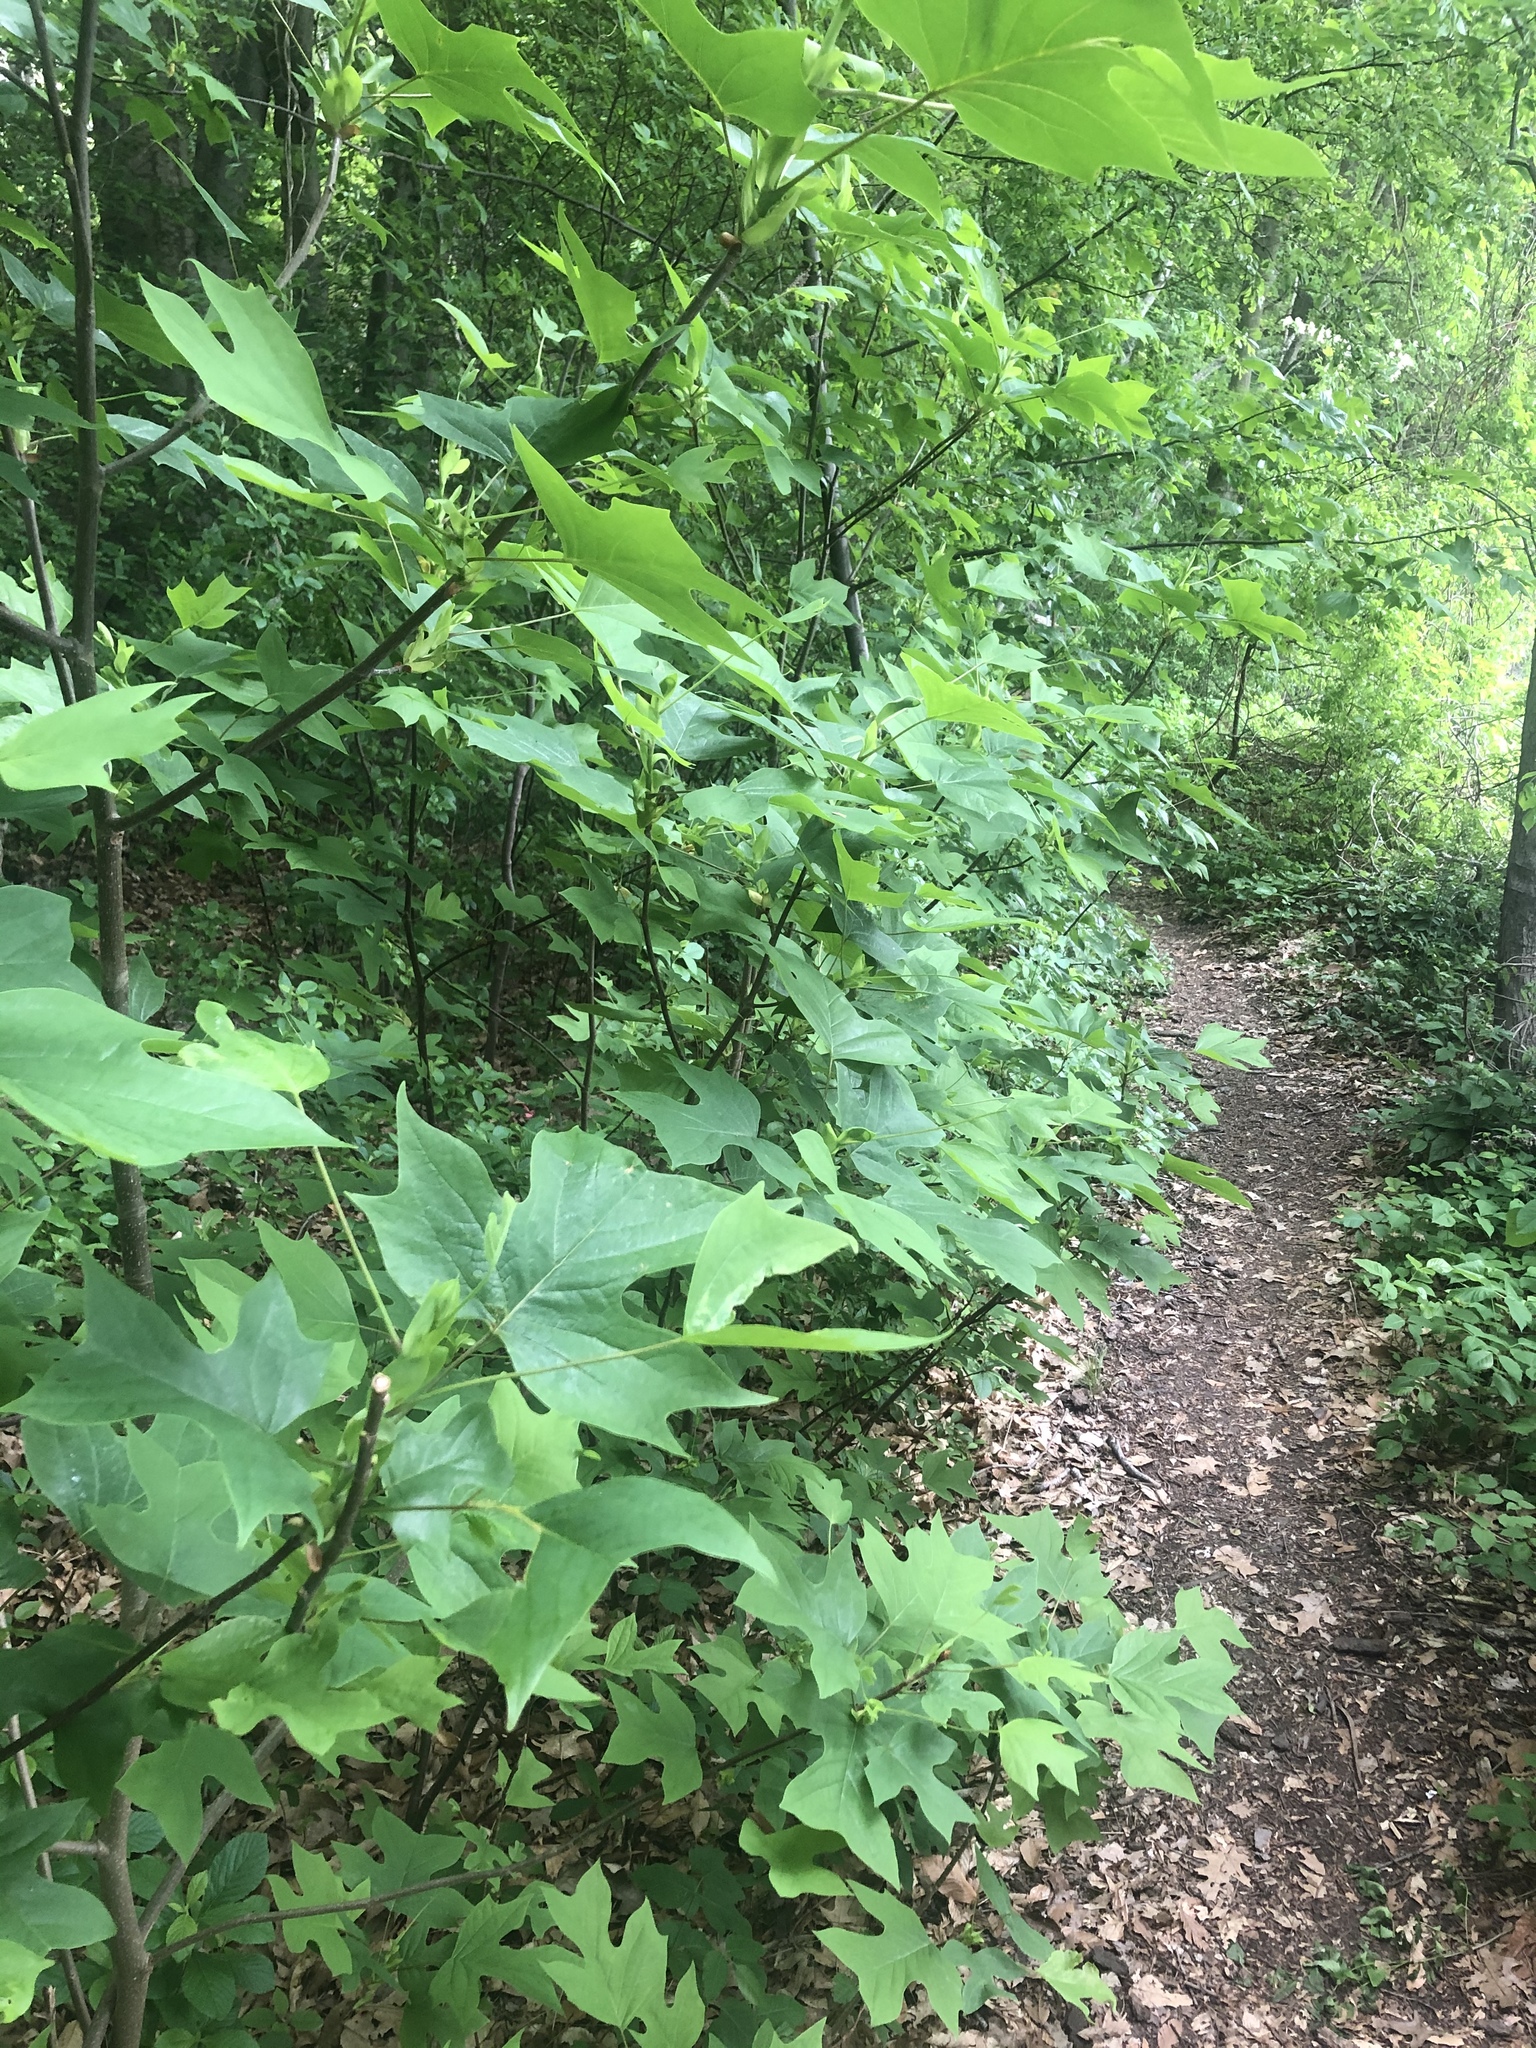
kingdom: Plantae
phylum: Tracheophyta
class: Magnoliopsida
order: Magnoliales
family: Magnoliaceae
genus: Liriodendron
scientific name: Liriodendron tulipifera
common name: Tulip tree
